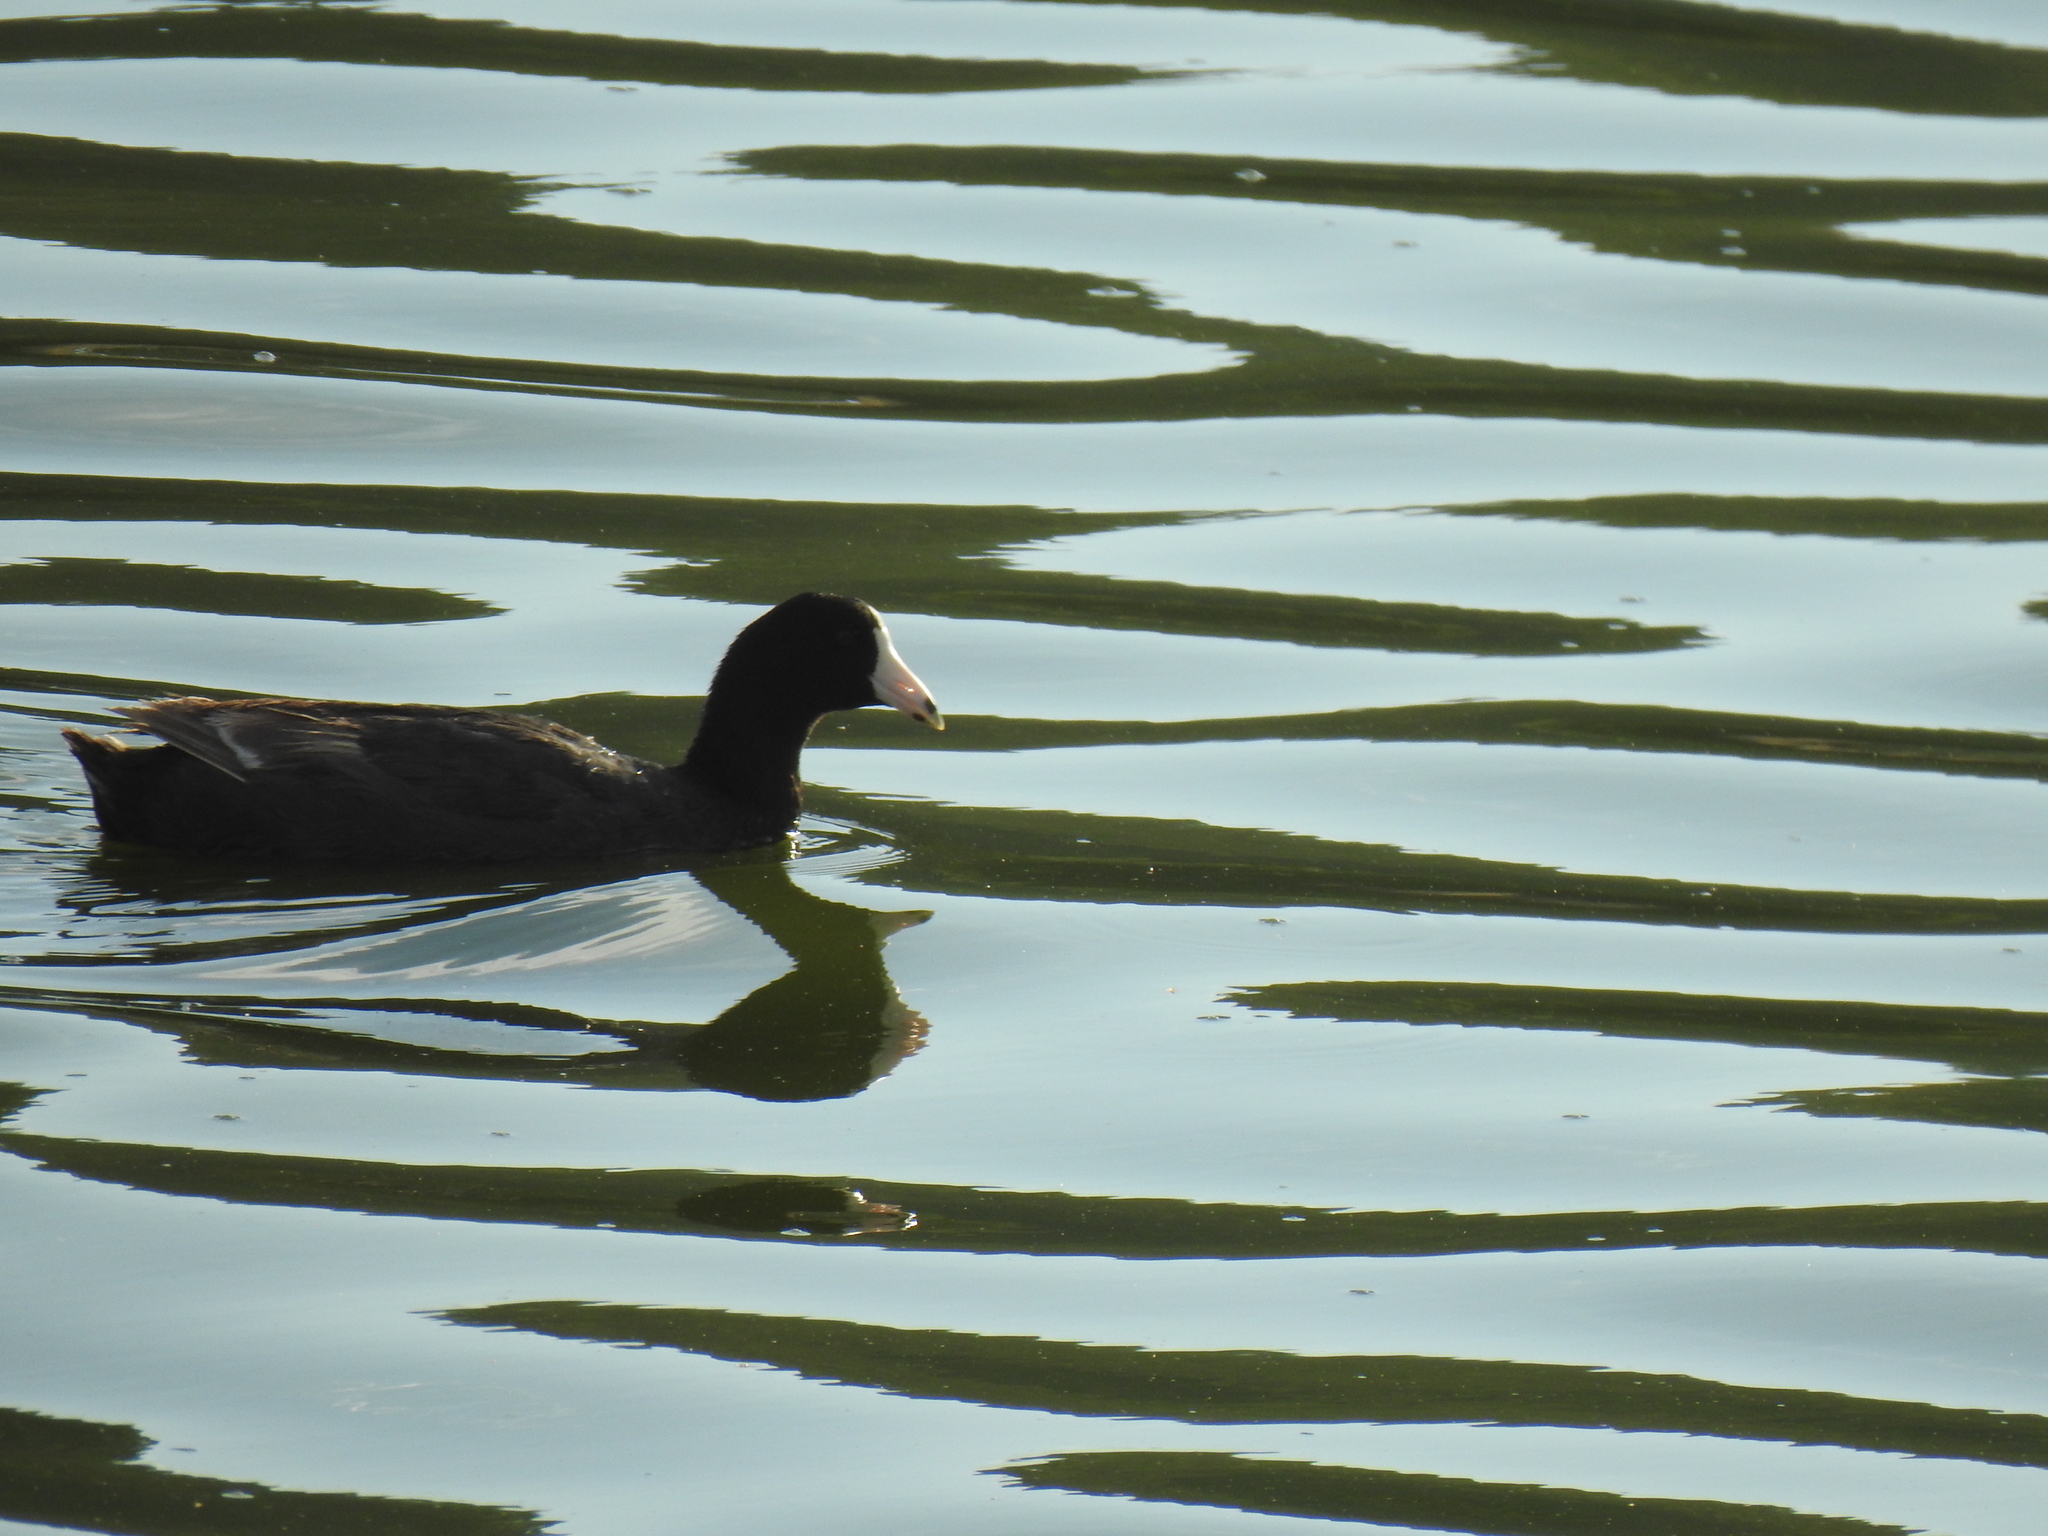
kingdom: Animalia
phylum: Chordata
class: Aves
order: Gruiformes
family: Rallidae
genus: Fulica
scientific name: Fulica americana
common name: American coot
